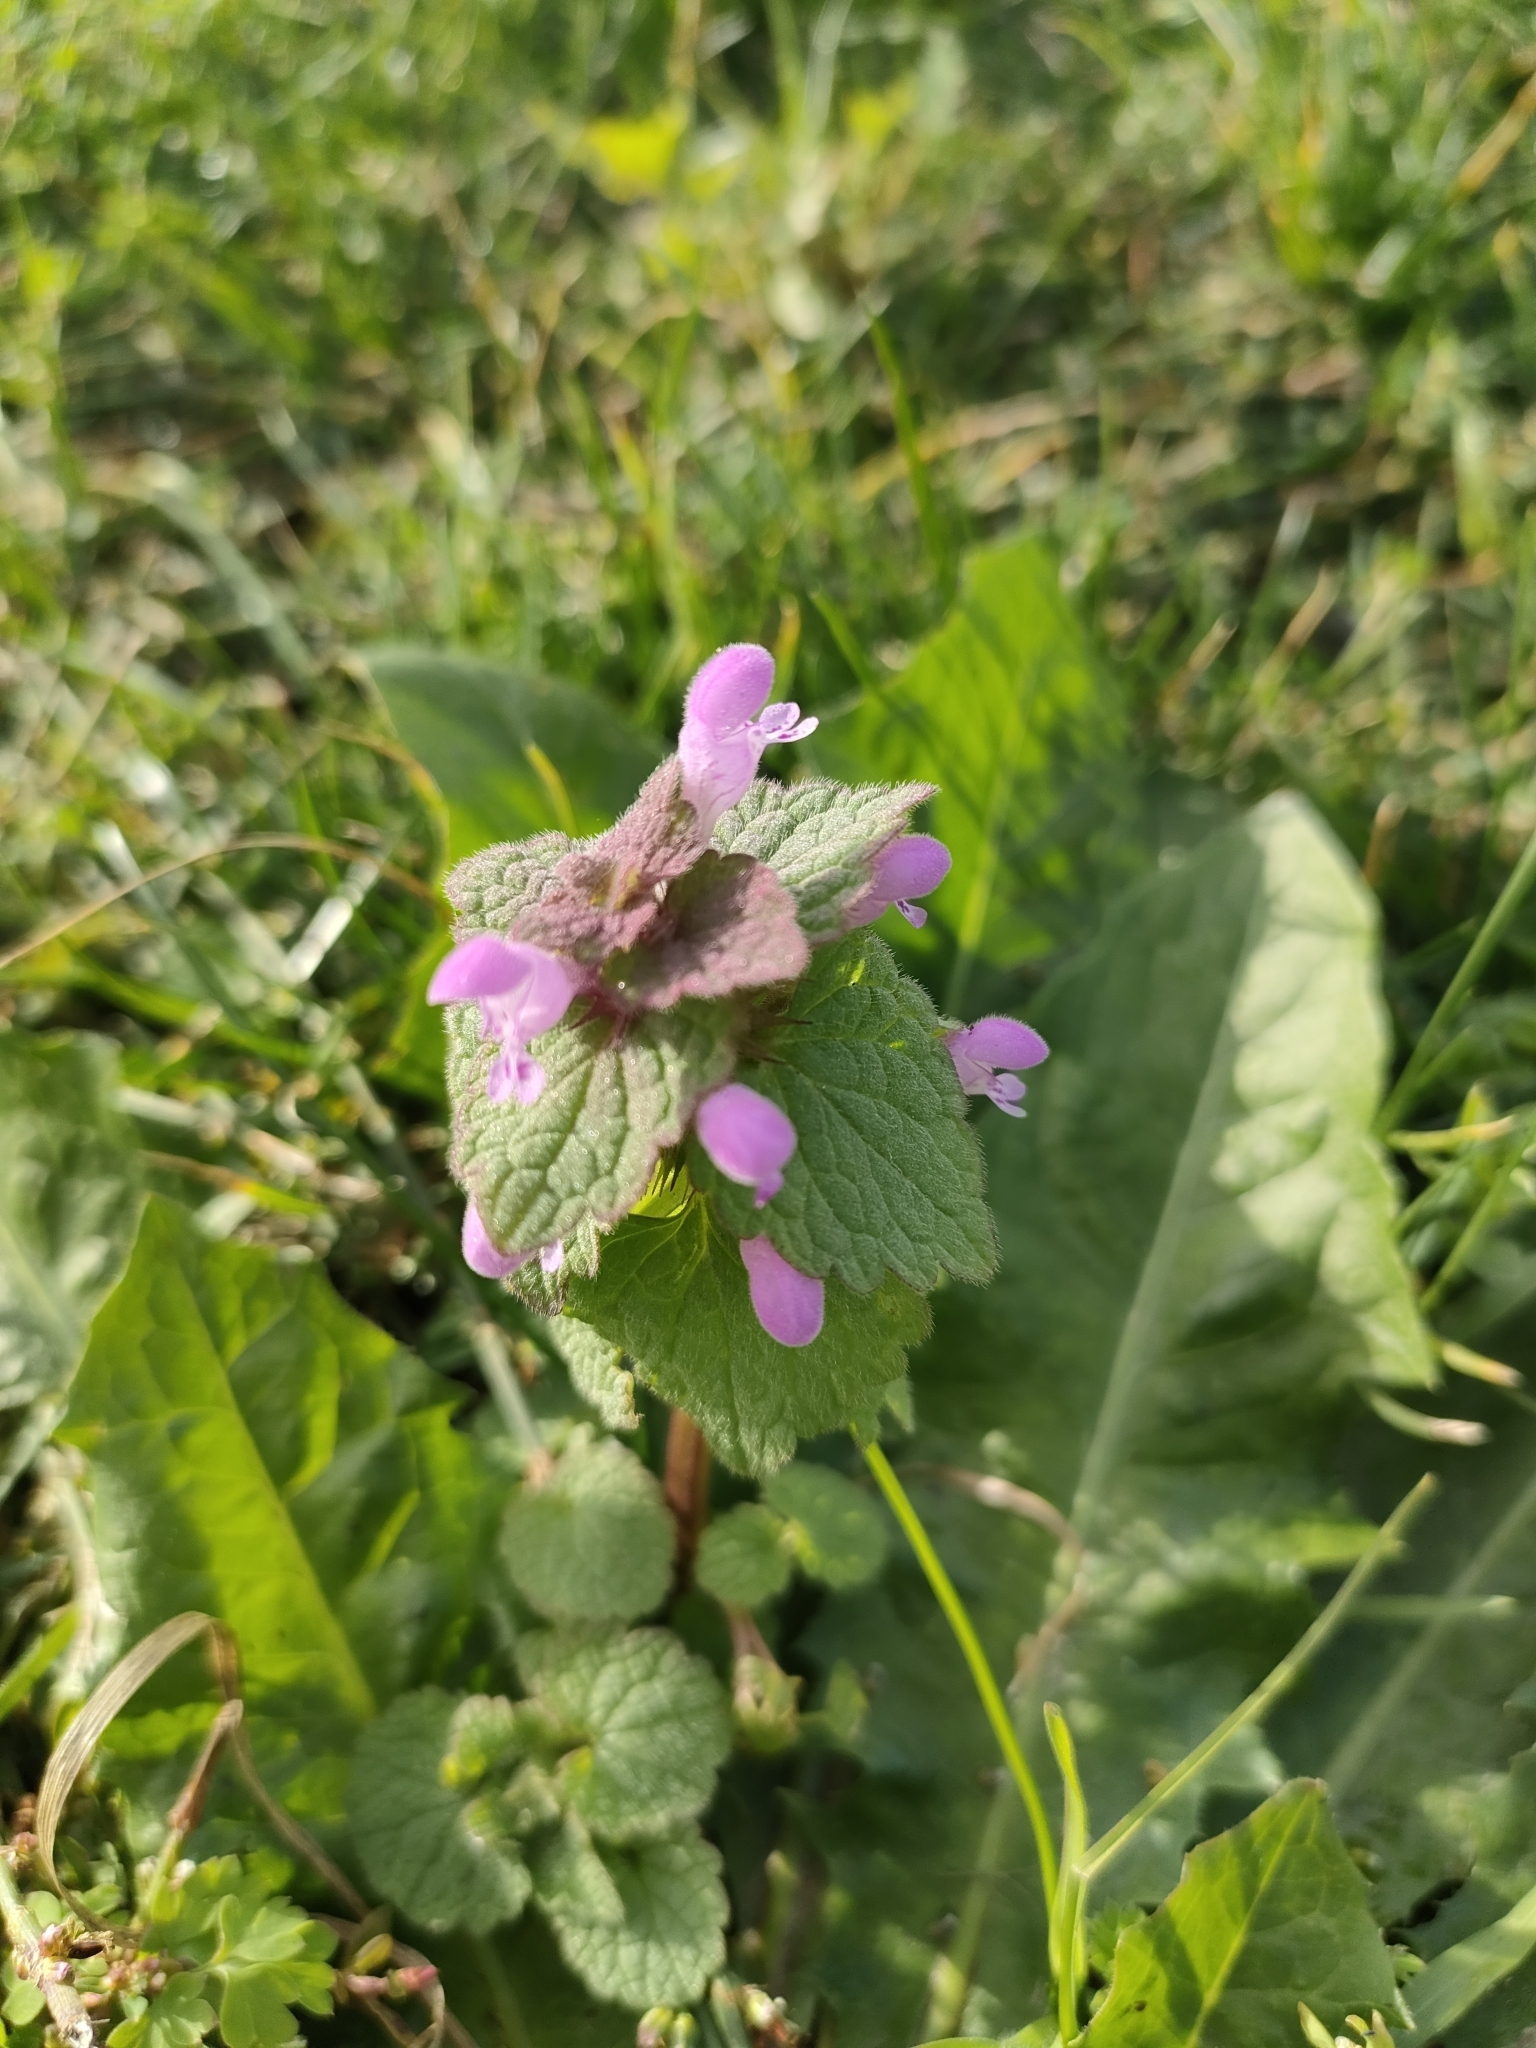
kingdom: Plantae
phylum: Tracheophyta
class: Magnoliopsida
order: Lamiales
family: Lamiaceae
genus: Lamium
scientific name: Lamium purpureum
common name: Red dead-nettle
